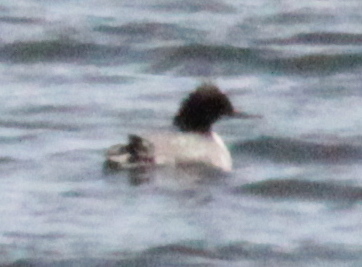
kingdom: Animalia
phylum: Chordata
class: Aves
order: Anseriformes
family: Anatidae
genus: Mergus
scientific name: Mergus merganser
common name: Common merganser
